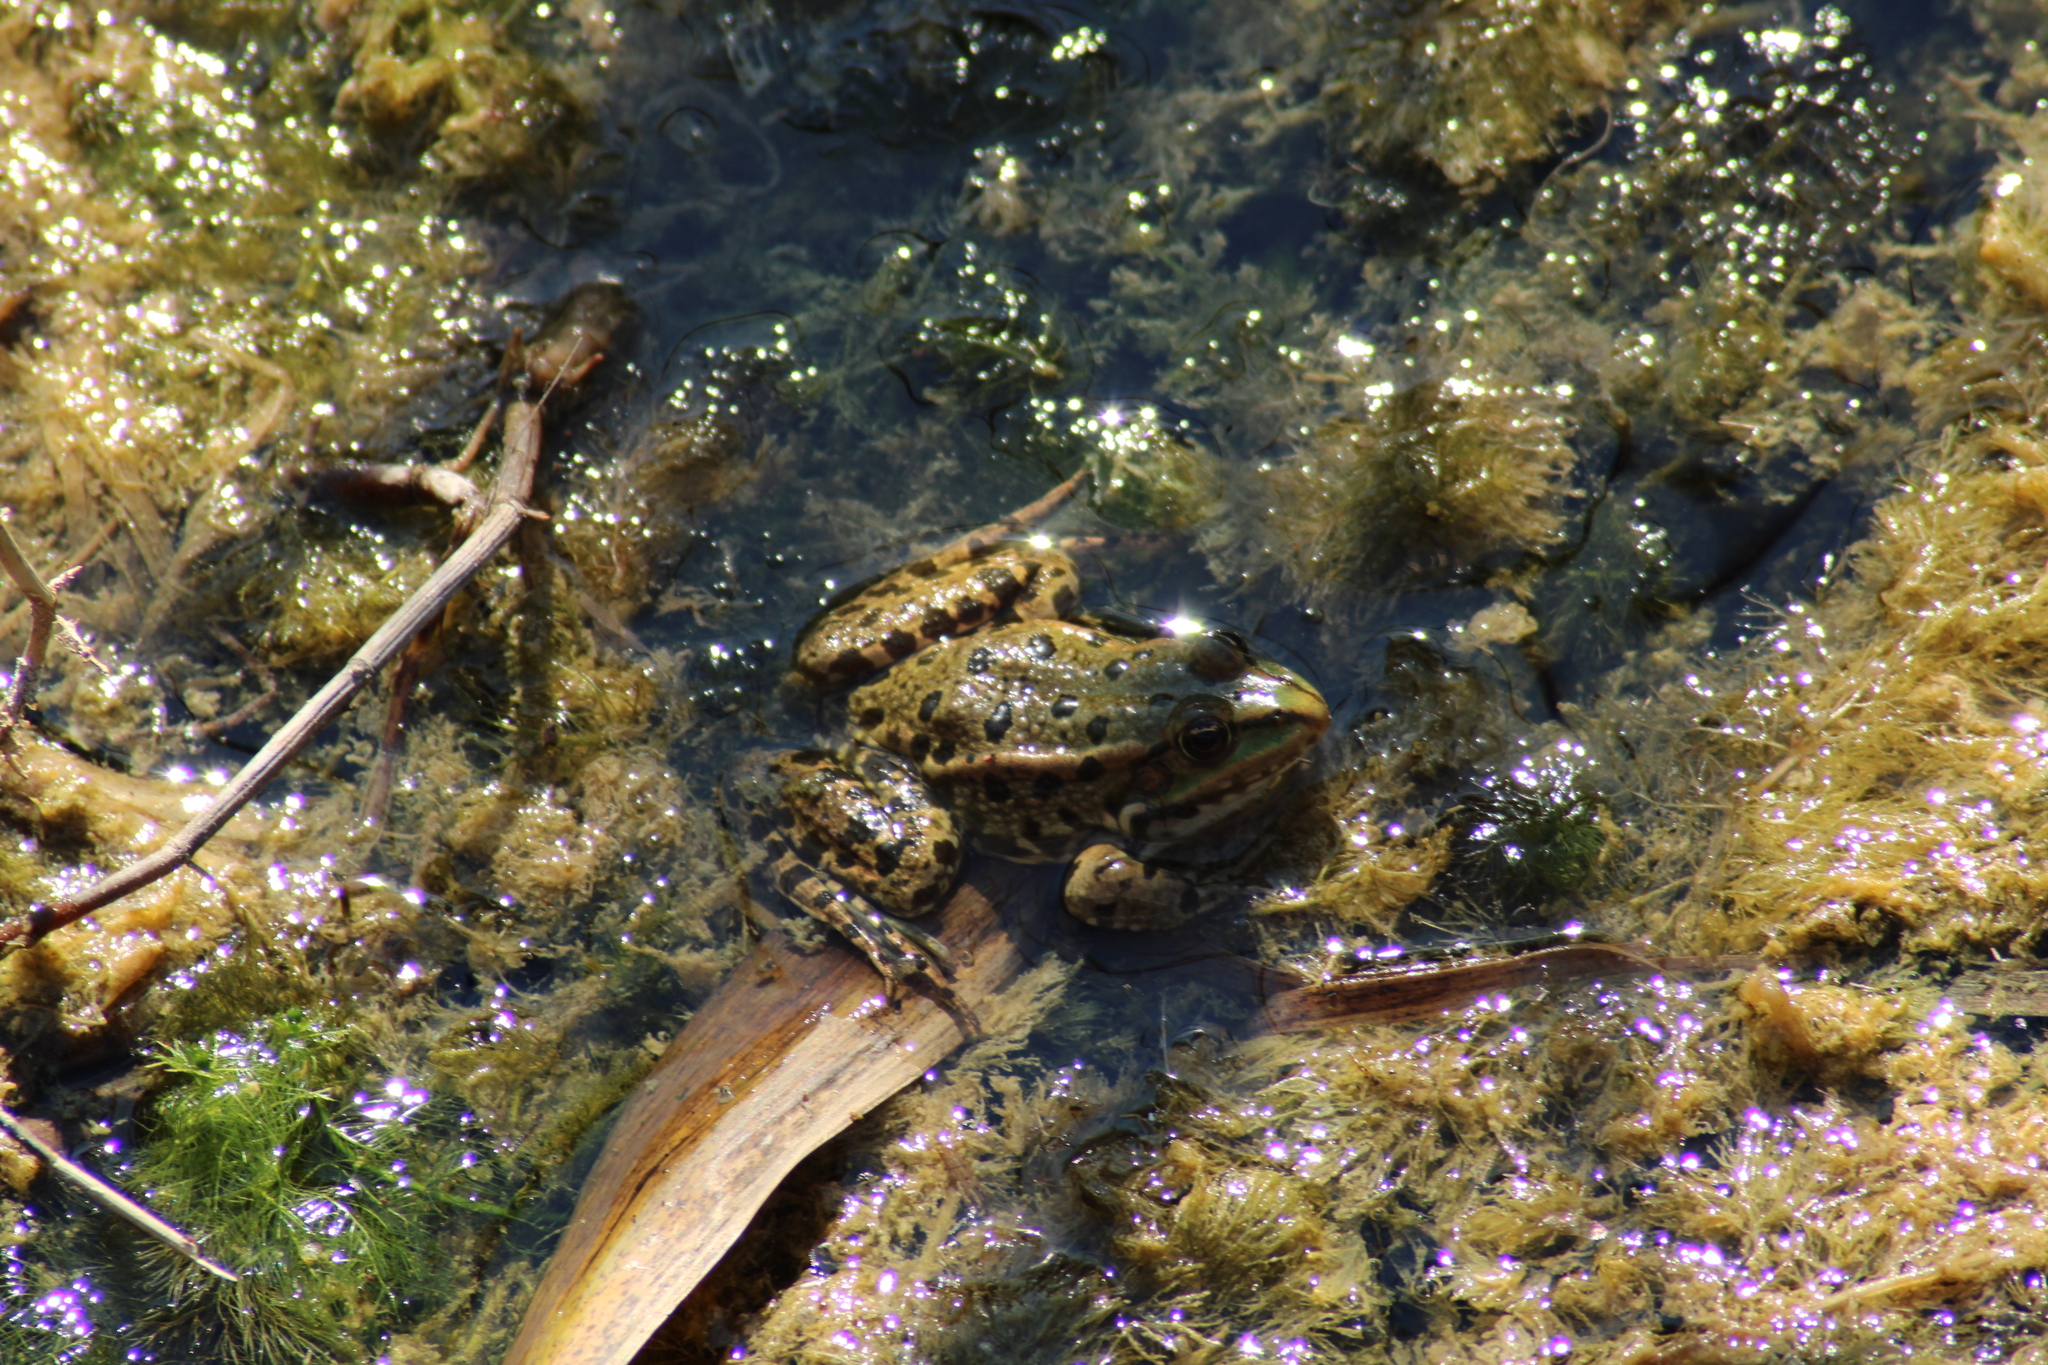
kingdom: Animalia
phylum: Chordata
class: Amphibia
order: Anura
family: Ranidae
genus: Pelophylax
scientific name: Pelophylax
